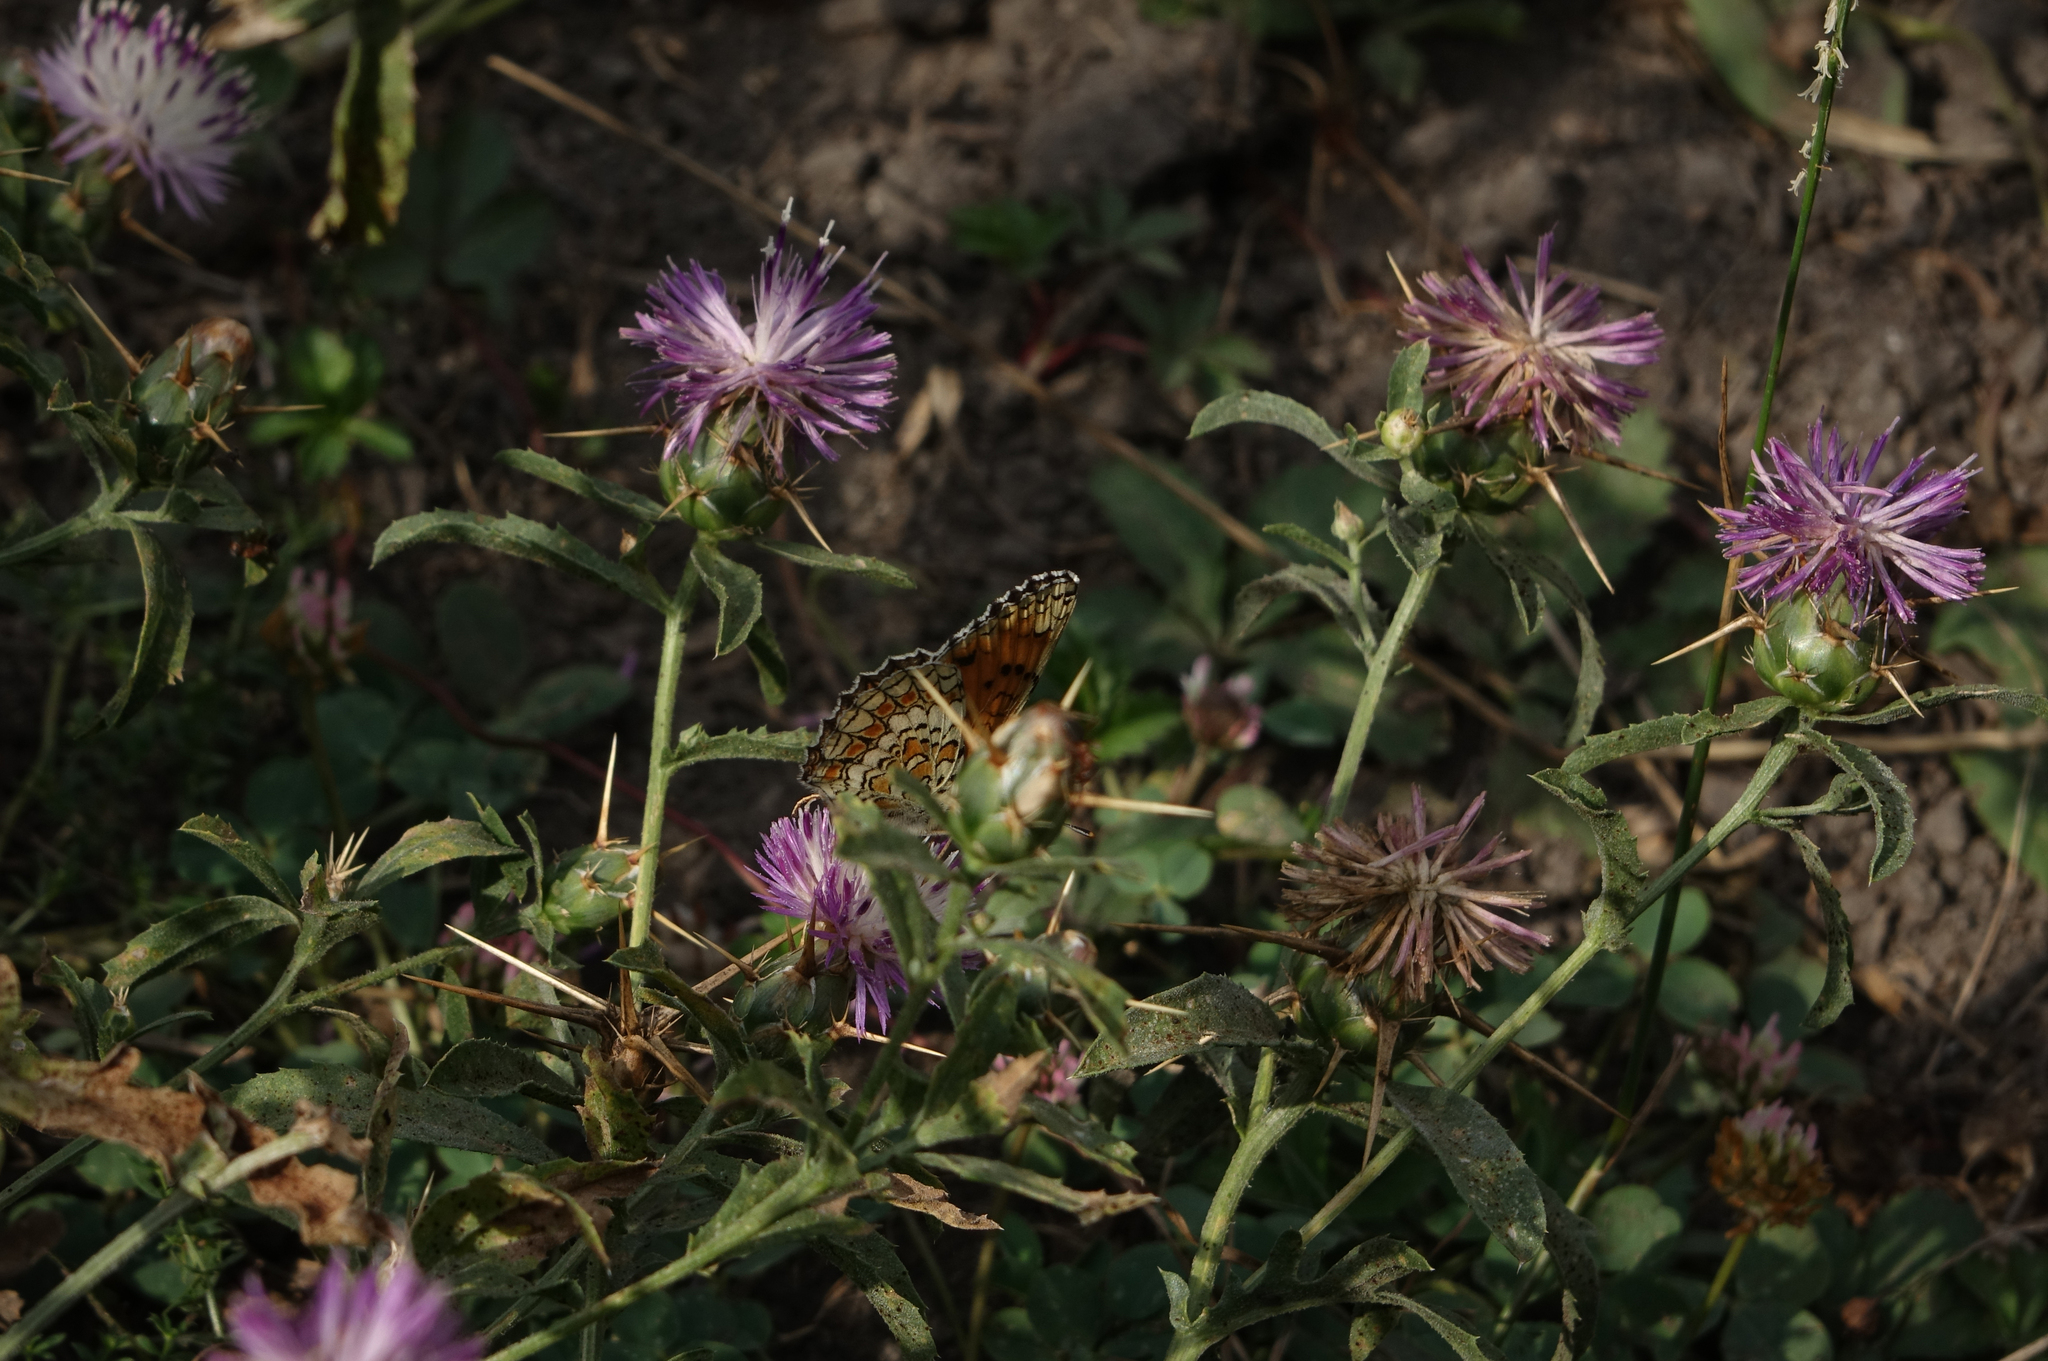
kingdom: Plantae
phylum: Tracheophyta
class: Magnoliopsida
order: Asterales
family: Asteraceae
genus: Centaurea
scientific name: Centaurea iberica
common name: Iberian knapweed
